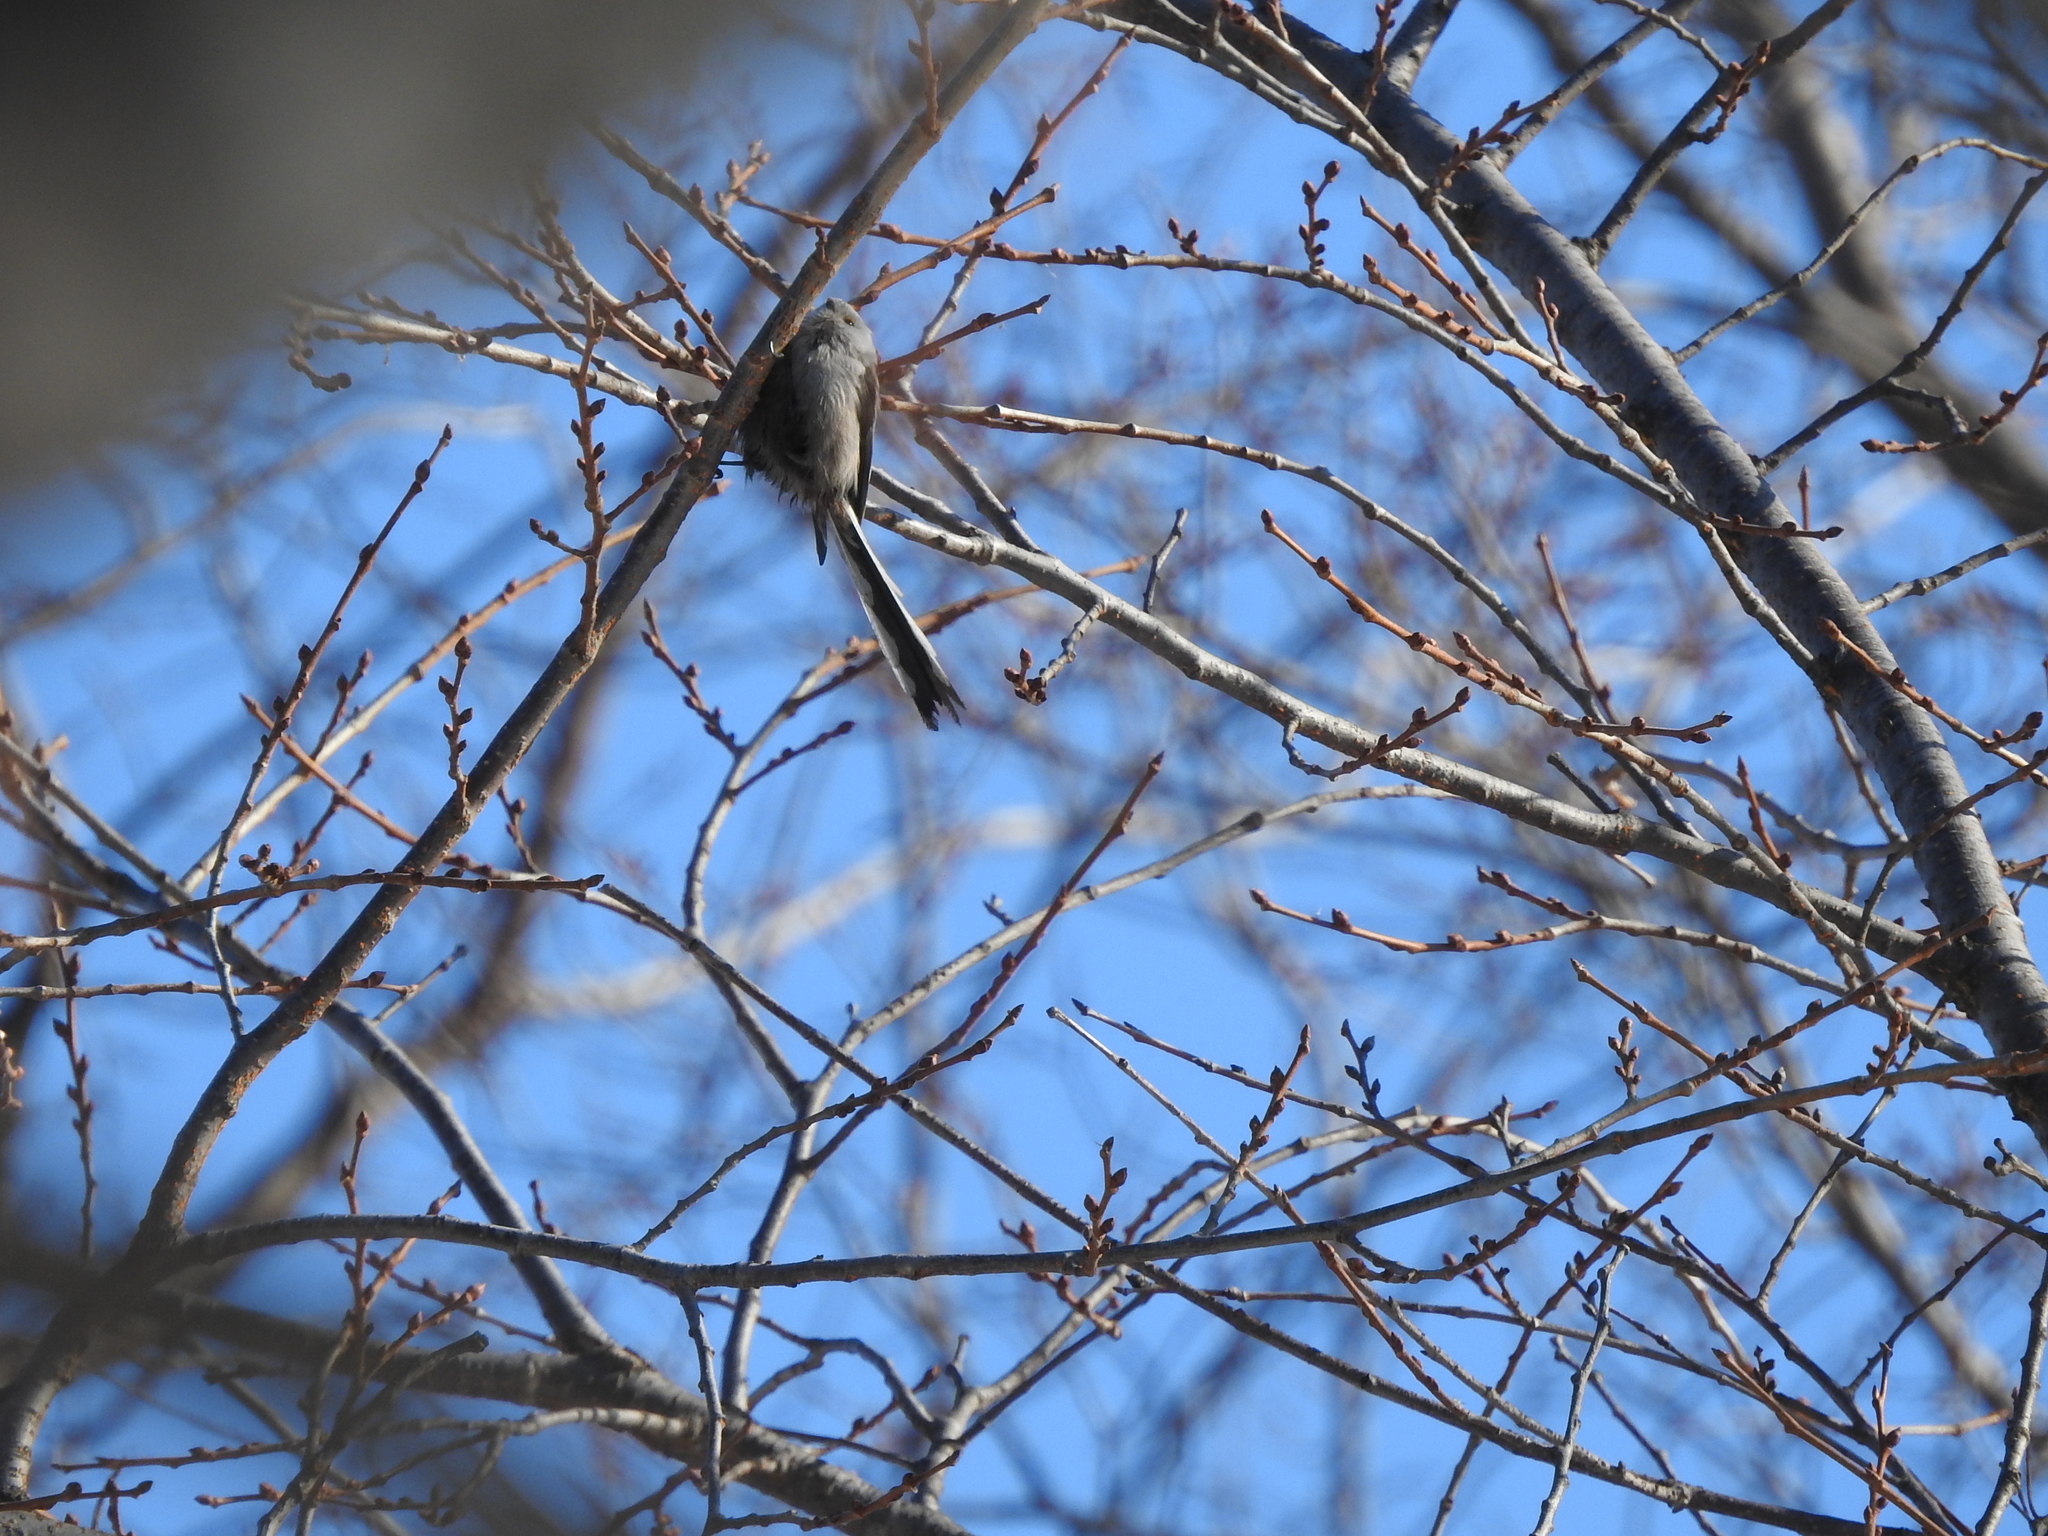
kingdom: Animalia
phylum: Chordata
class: Aves
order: Passeriformes
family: Aegithalidae
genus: Aegithalos
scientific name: Aegithalos caudatus
